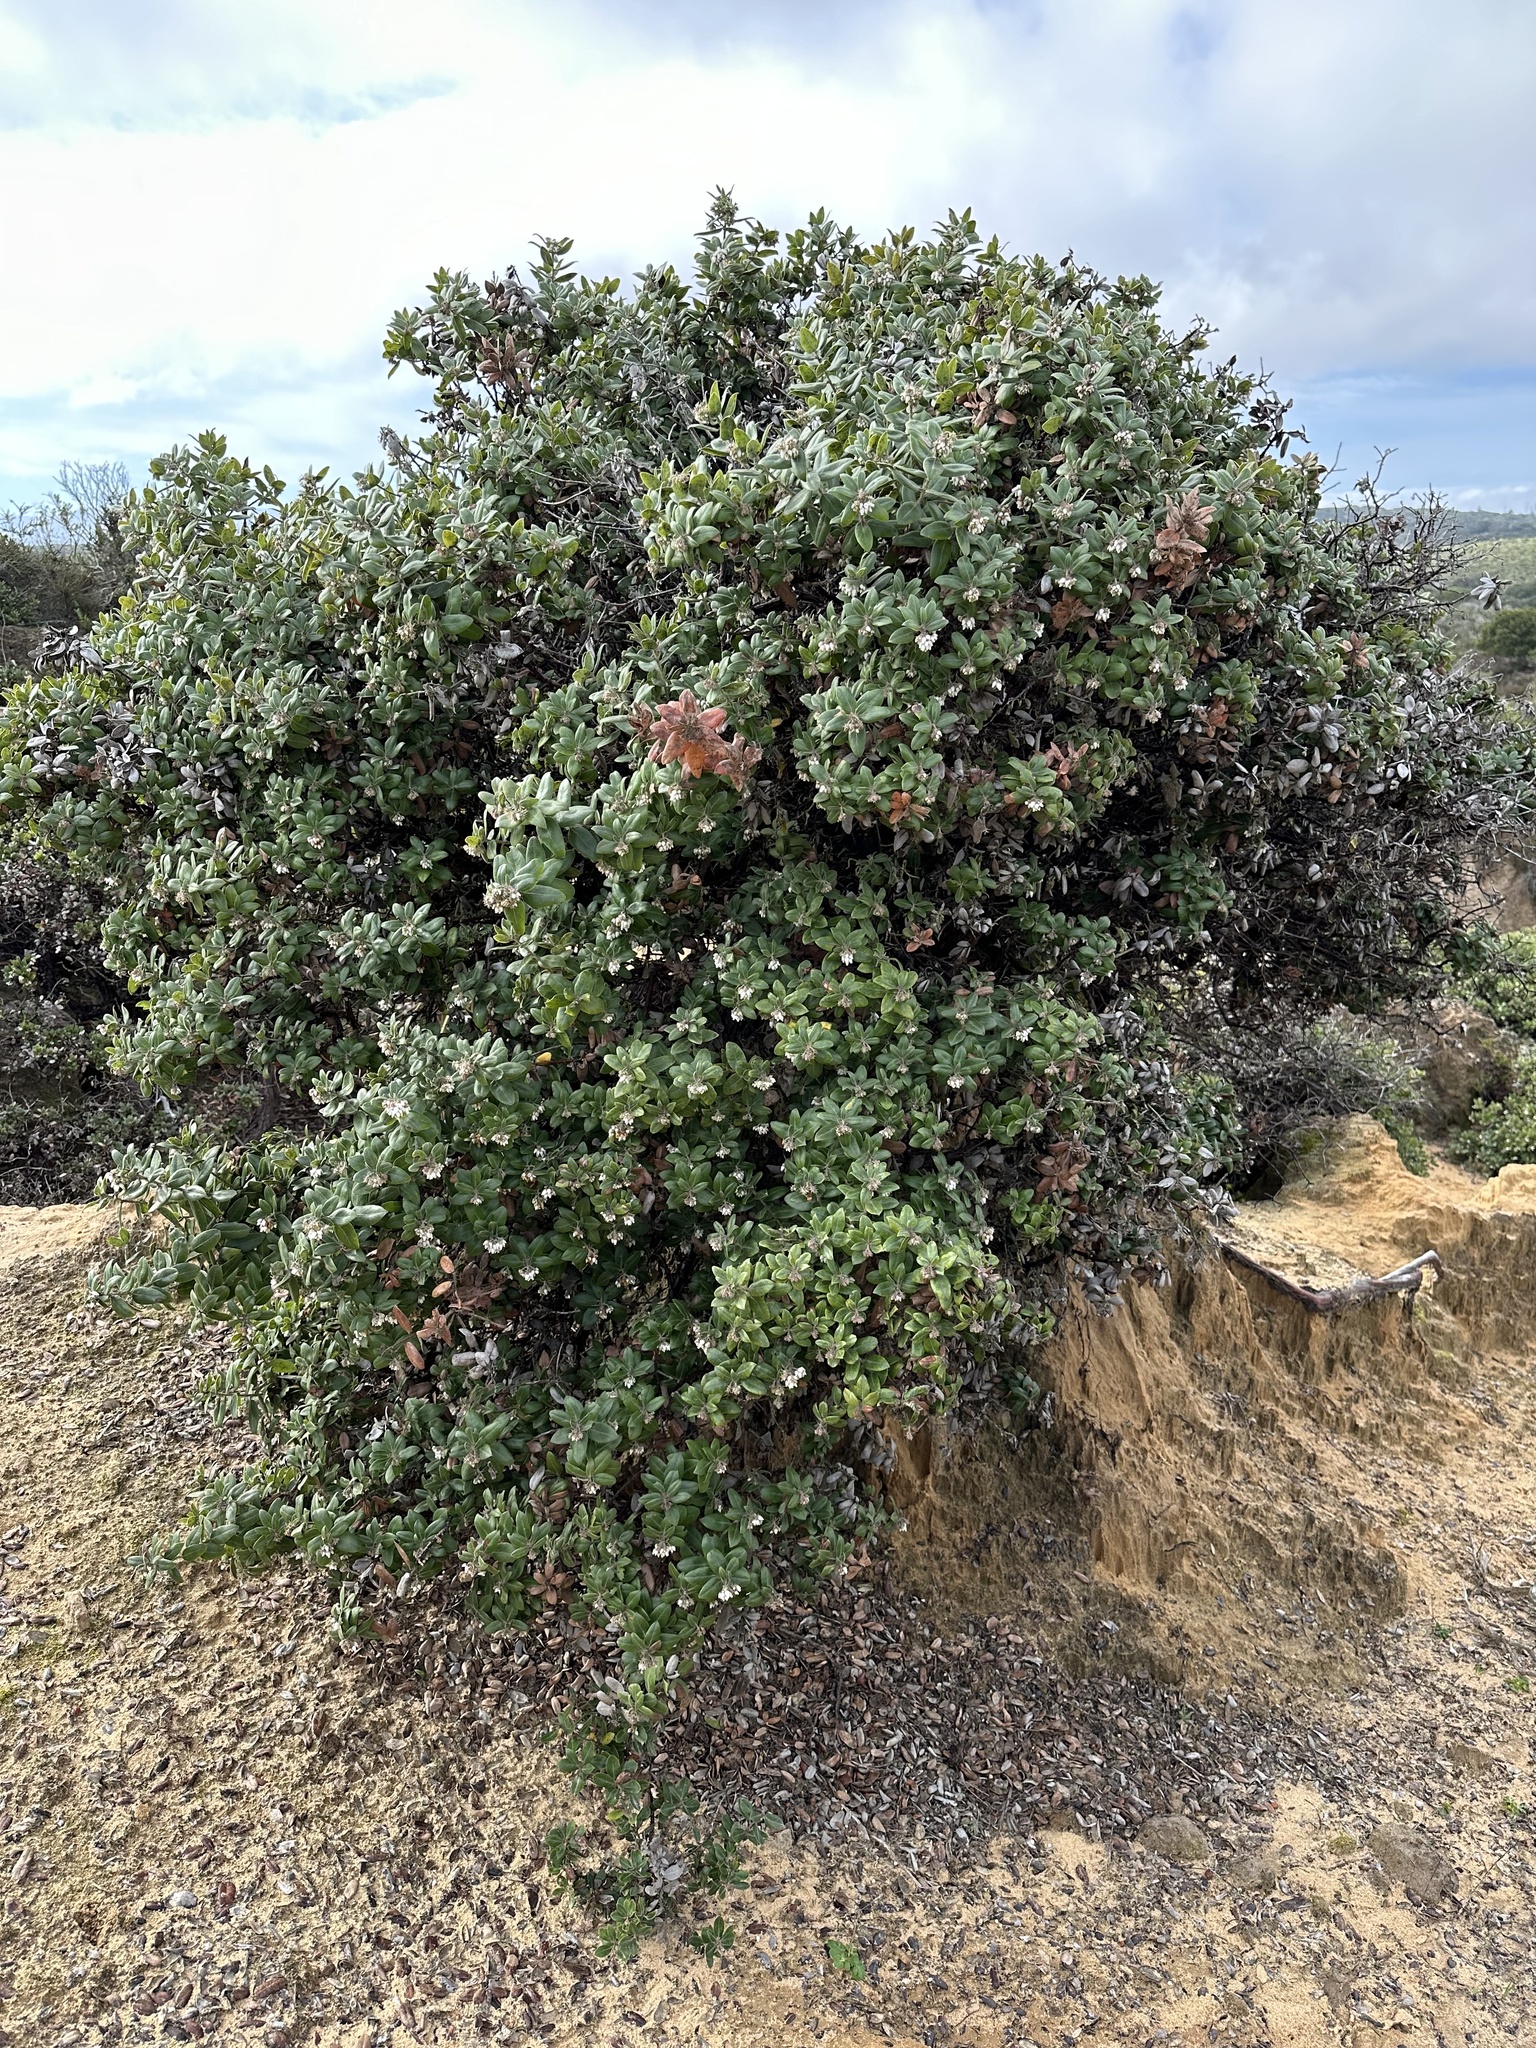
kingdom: Plantae
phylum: Tracheophyta
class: Magnoliopsida
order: Ericales
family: Ericaceae
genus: Arctostaphylos
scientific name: Arctostaphylos tomentosa
